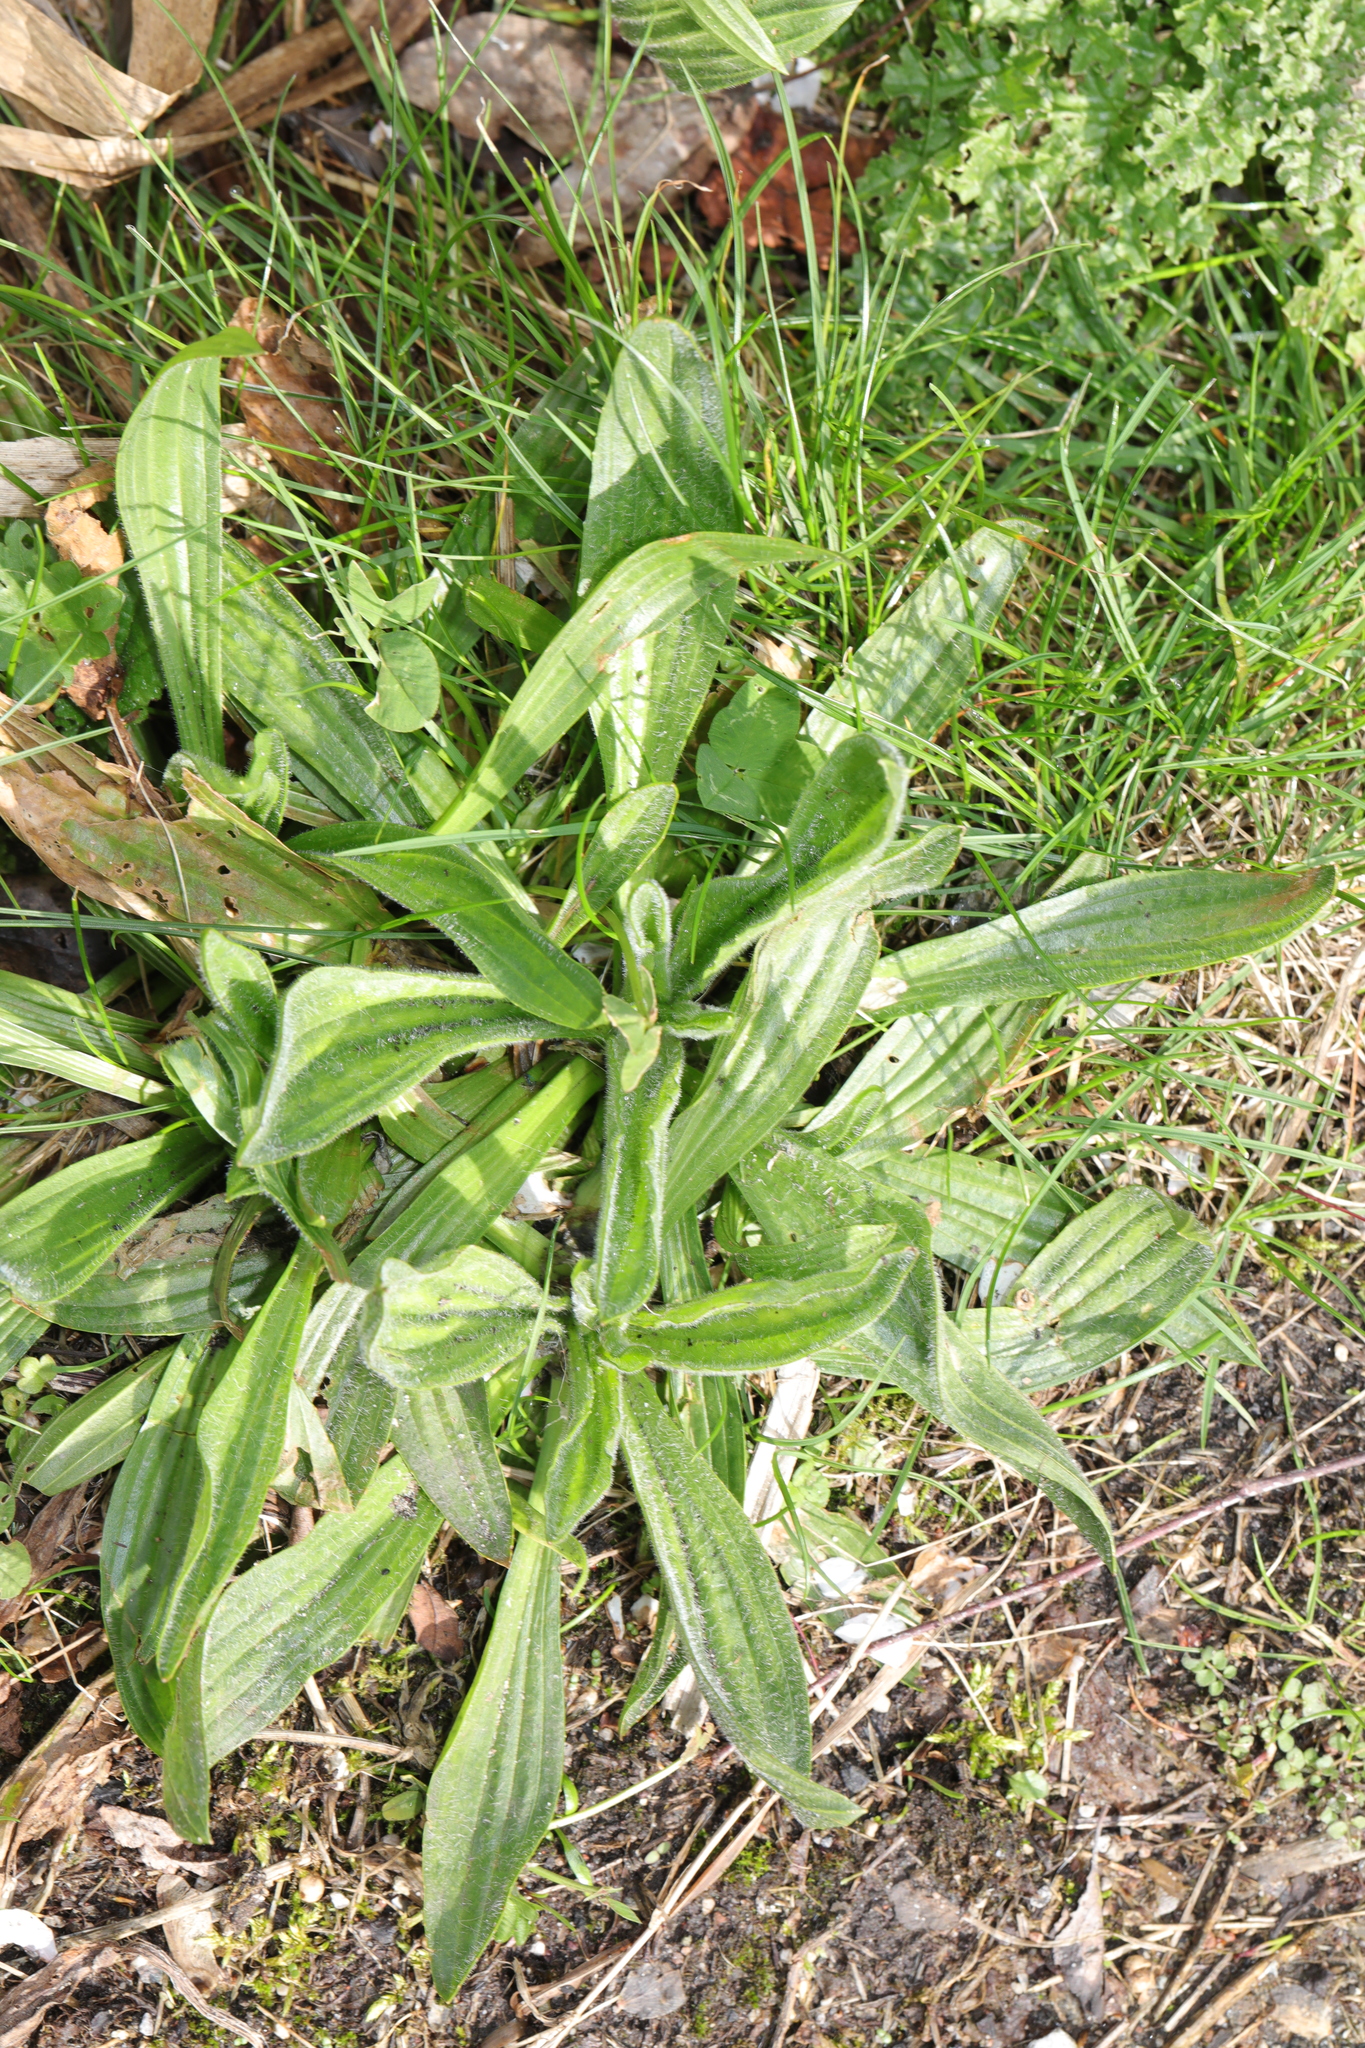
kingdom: Plantae
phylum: Tracheophyta
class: Magnoliopsida
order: Lamiales
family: Plantaginaceae
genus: Plantago
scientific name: Plantago lanceolata
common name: Ribwort plantain
